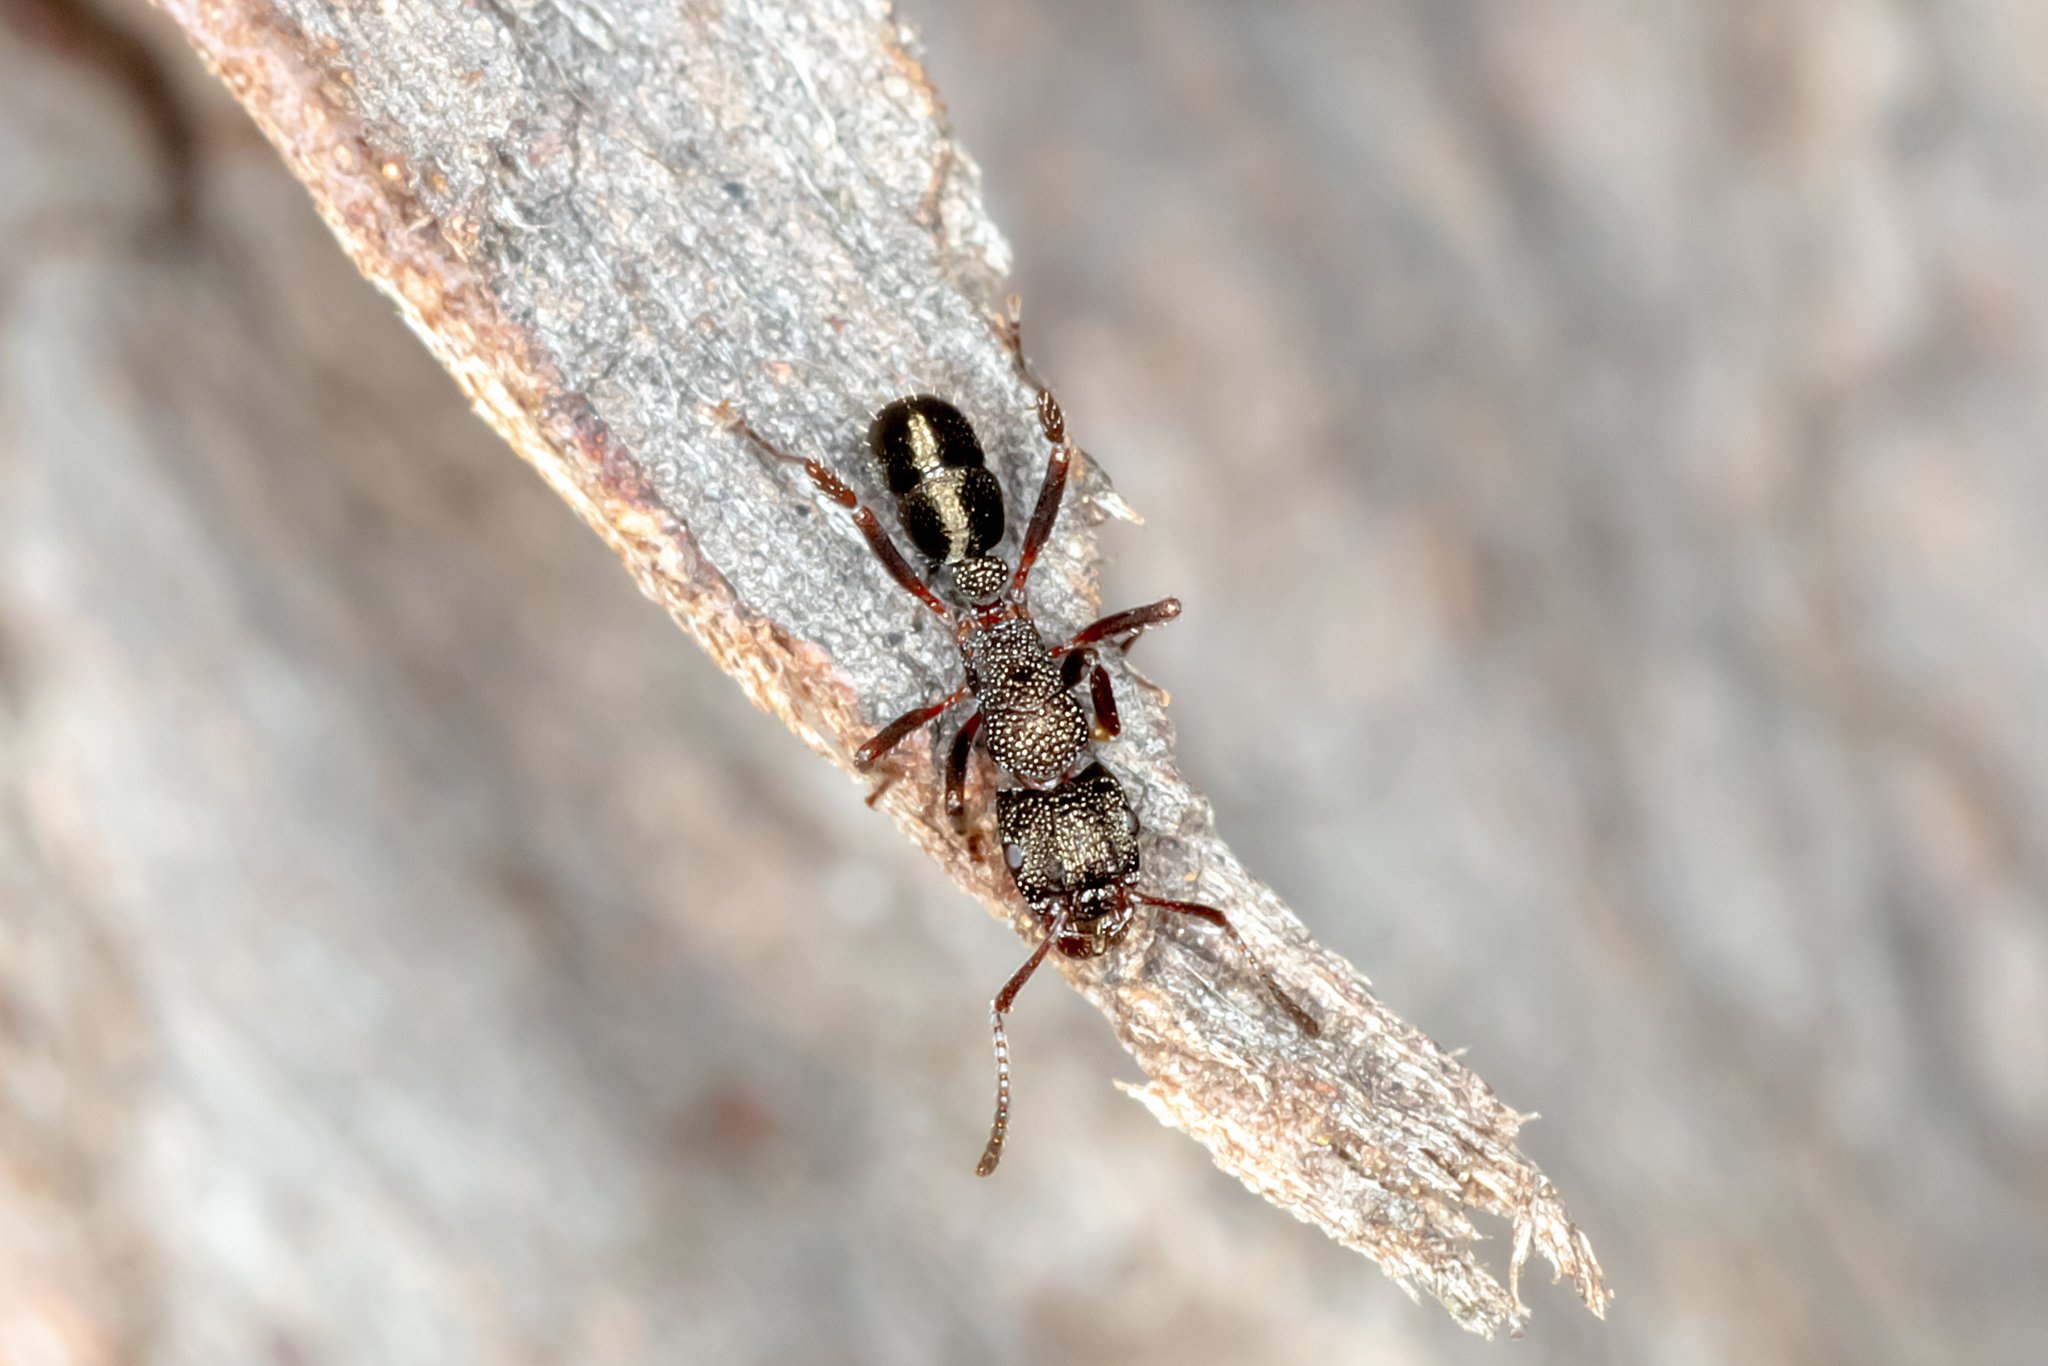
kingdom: Animalia
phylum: Arthropoda
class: Insecta
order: Hymenoptera
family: Formicidae
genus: Rhytidoponera
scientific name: Rhytidoponera tasmaniensis
